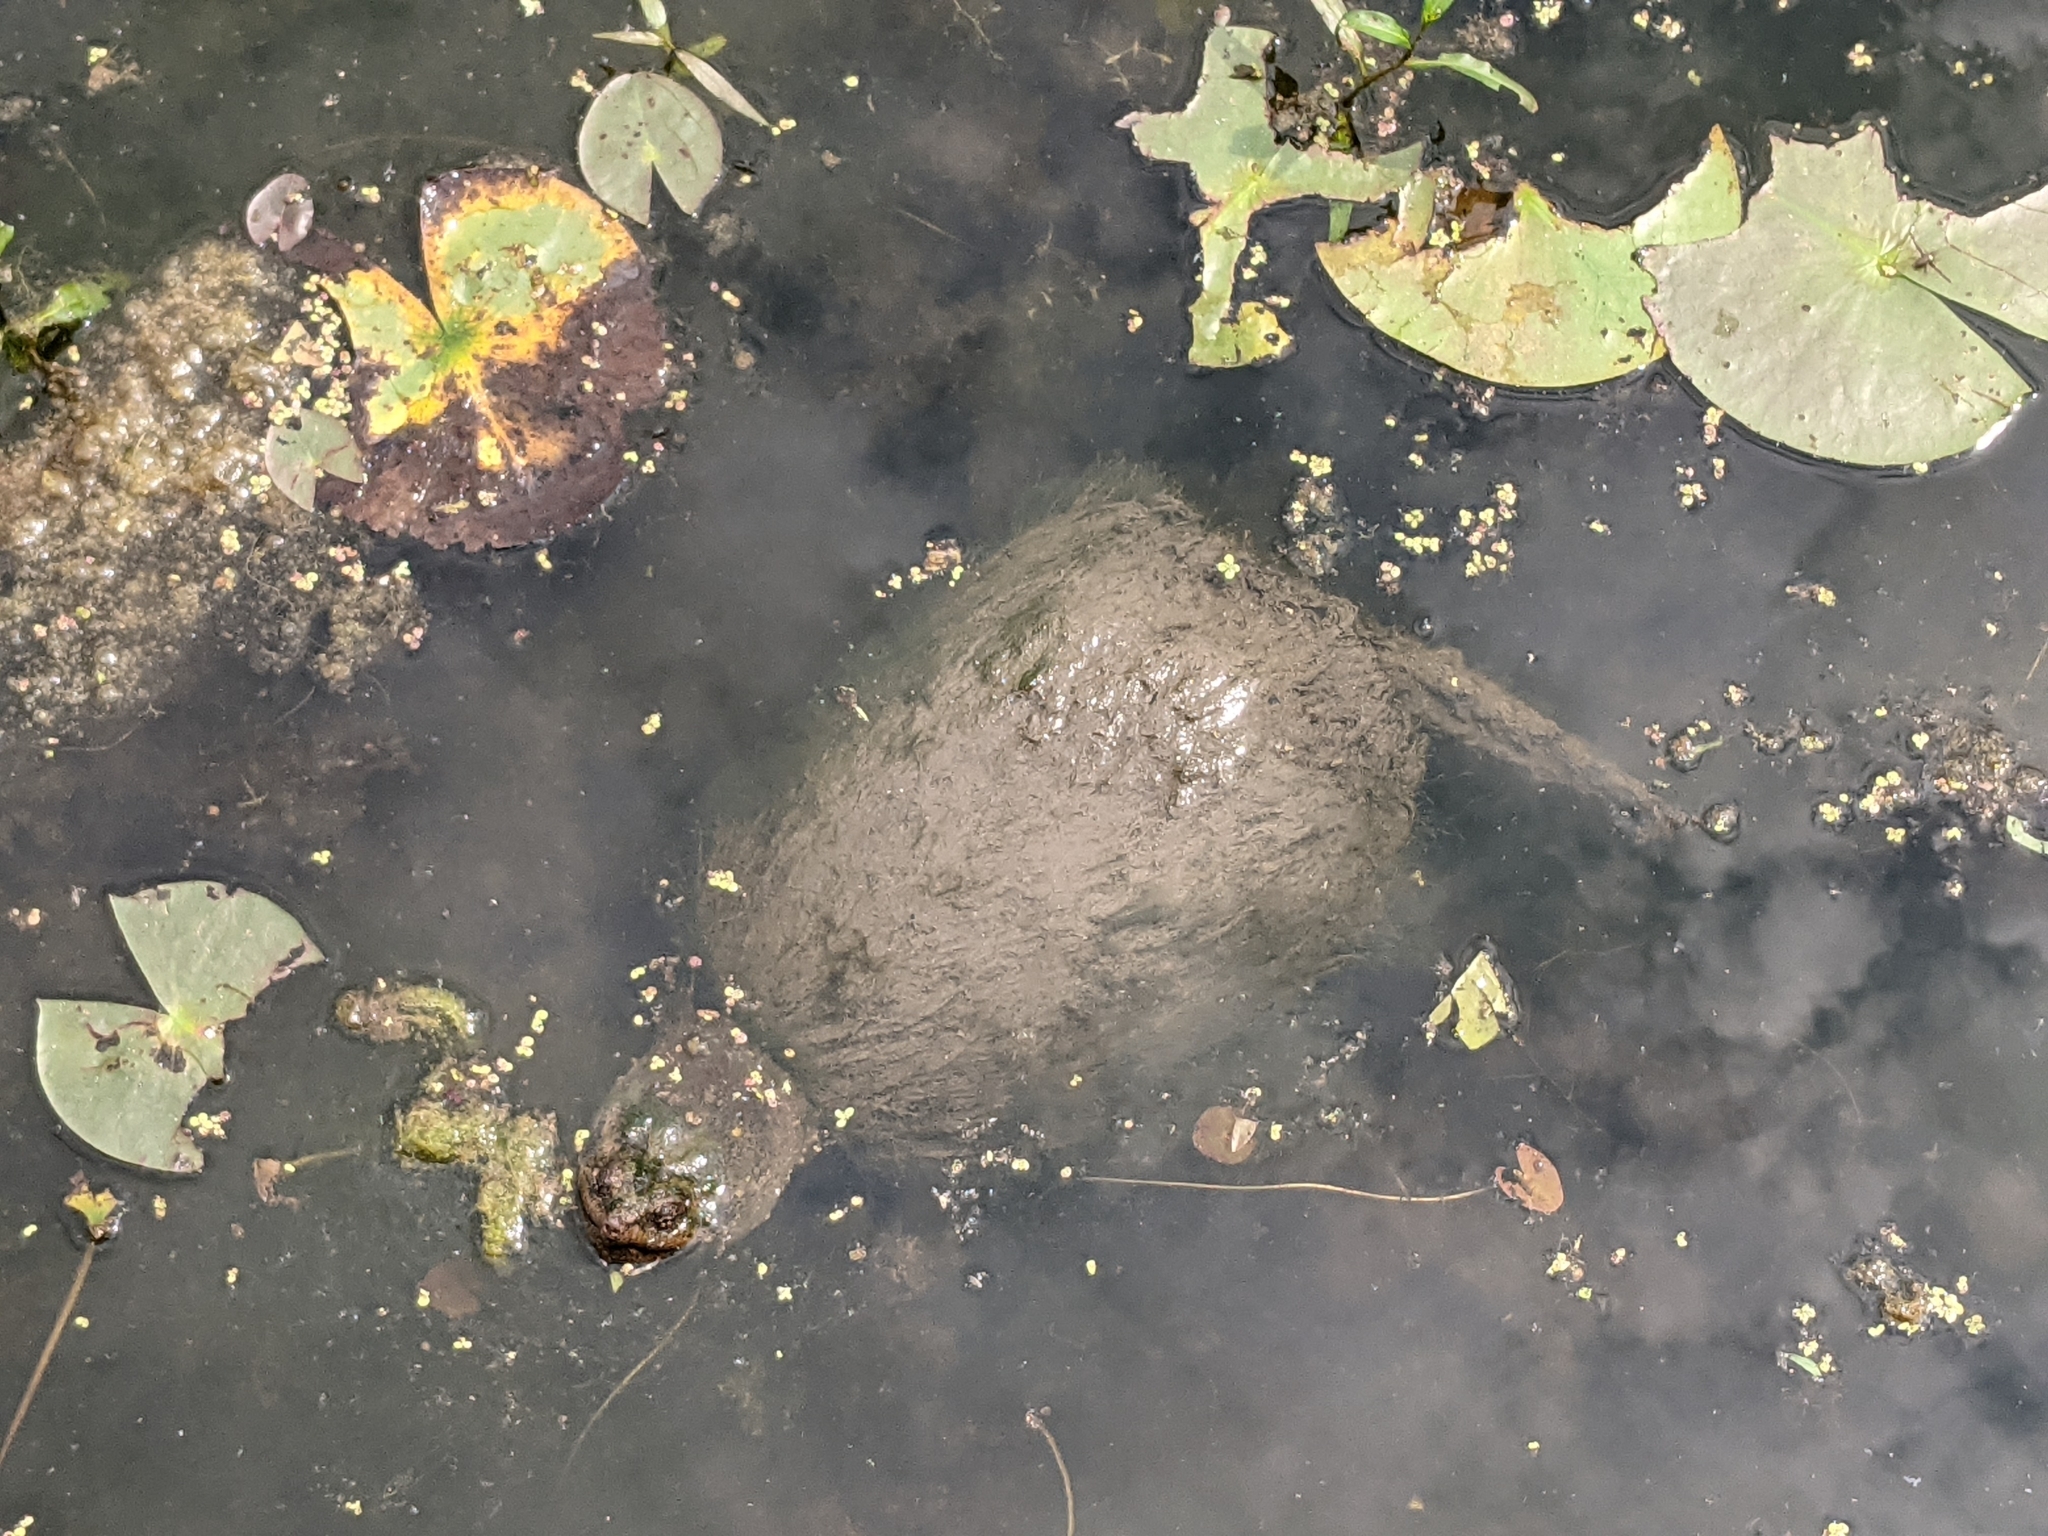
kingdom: Animalia
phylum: Chordata
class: Testudines
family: Chelydridae
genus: Chelydra
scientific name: Chelydra serpentina
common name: Common snapping turtle
